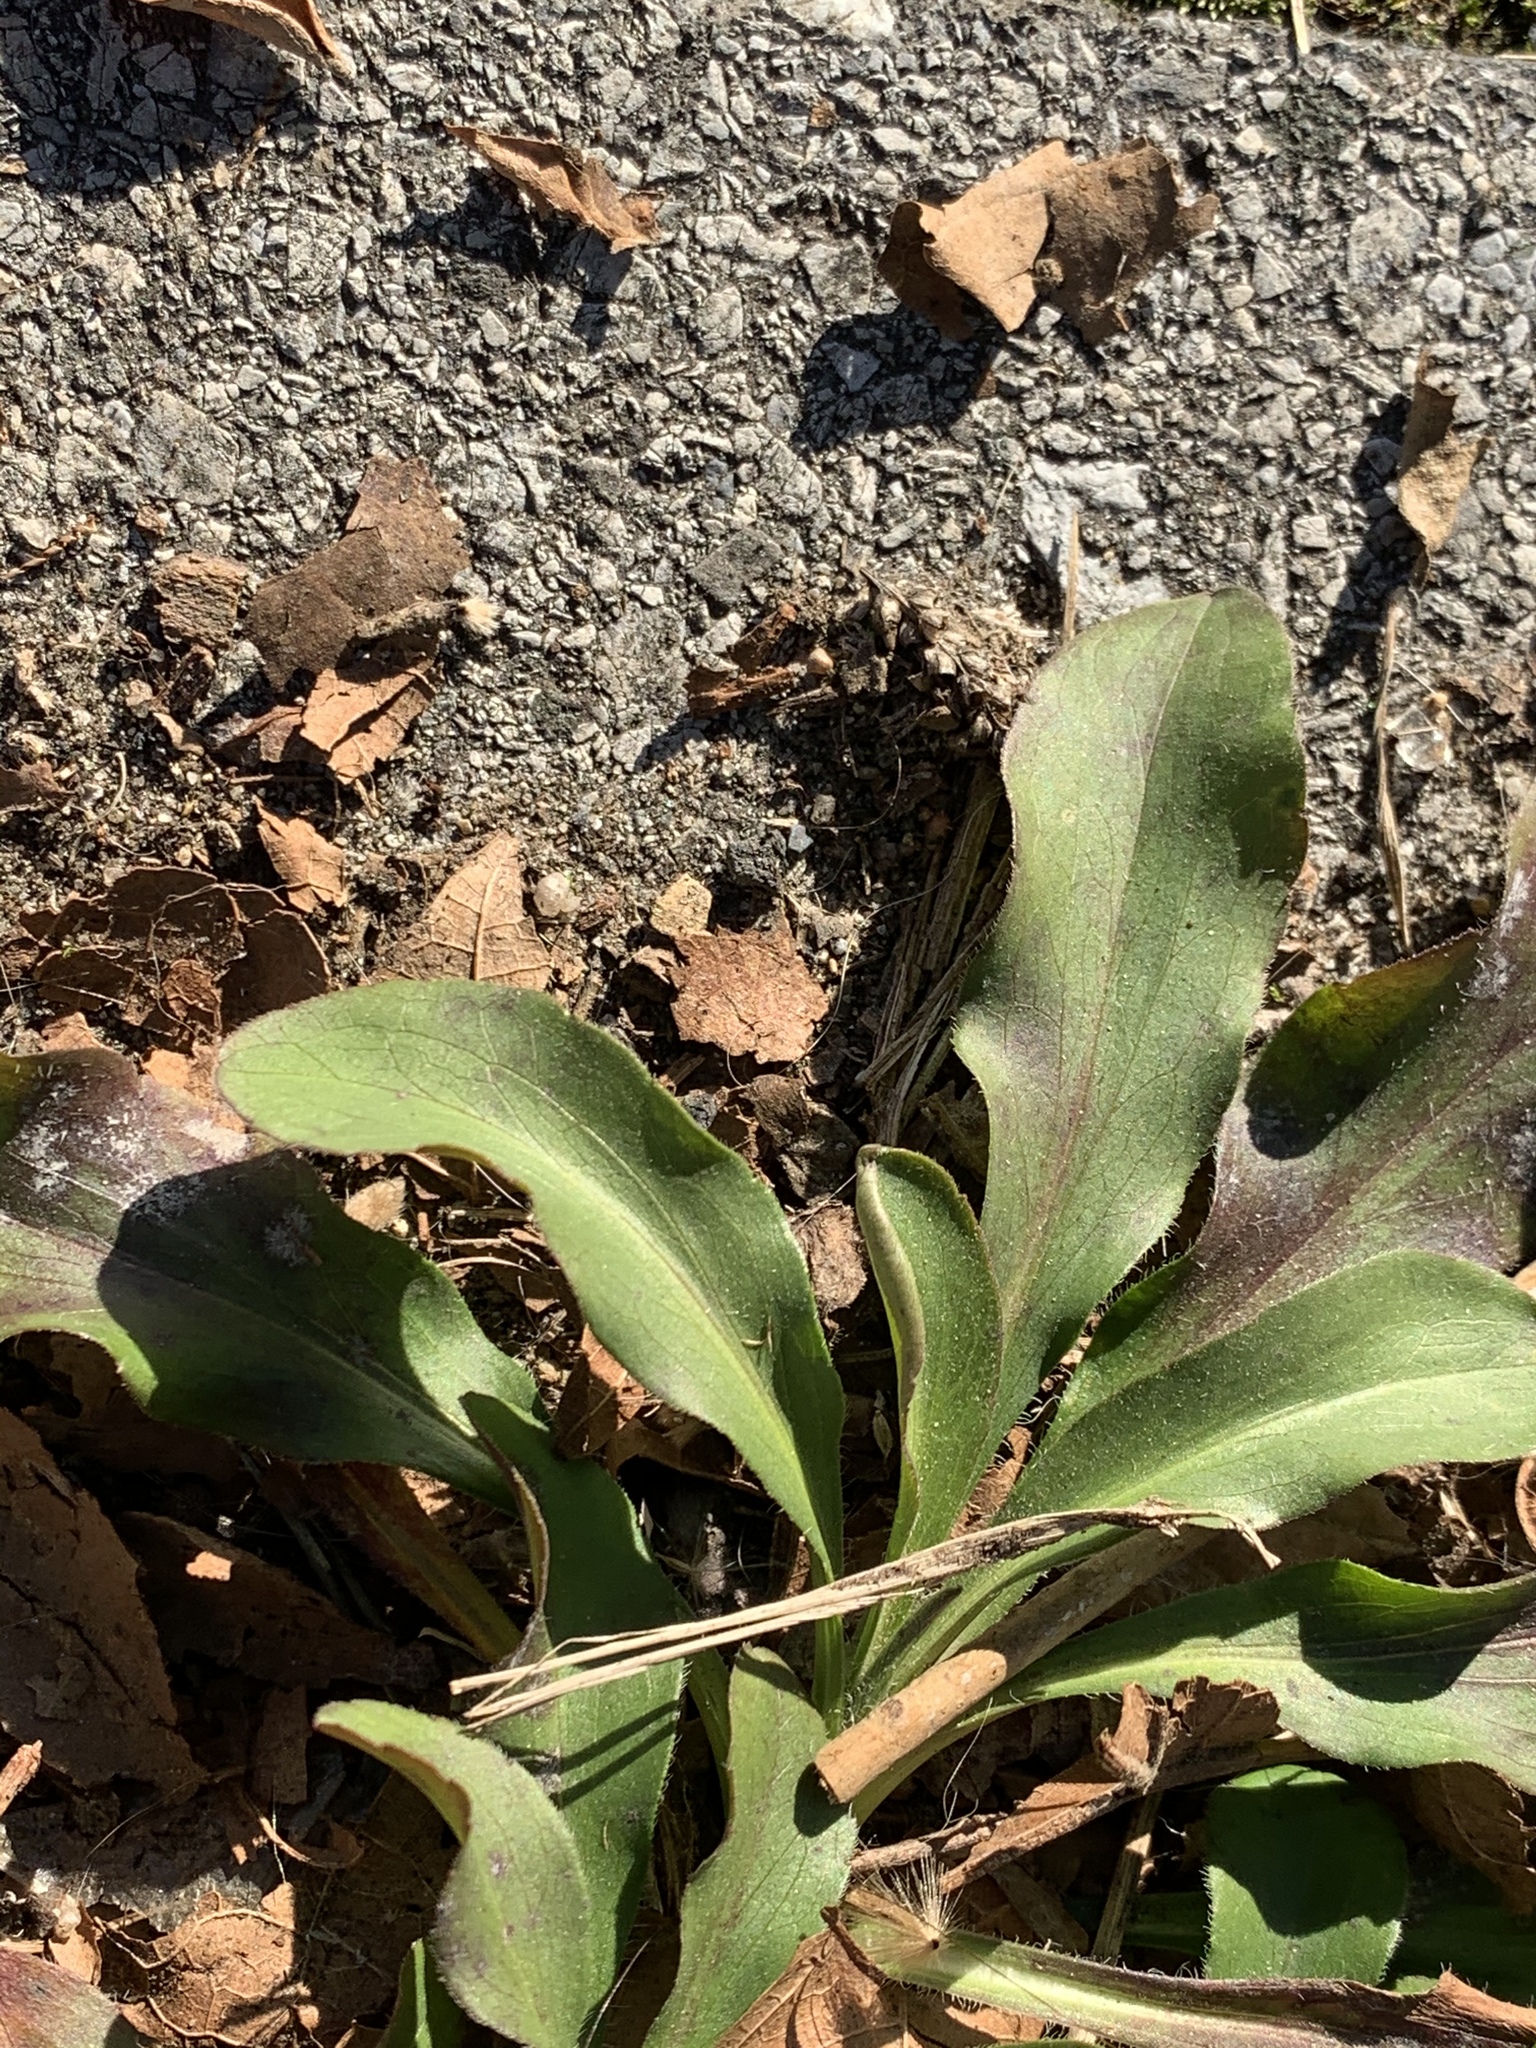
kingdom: Plantae
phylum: Tracheophyta
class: Magnoliopsida
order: Asterales
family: Asteraceae
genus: Solidago
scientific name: Solidago sempervirens
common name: Salt-marsh goldenrod
